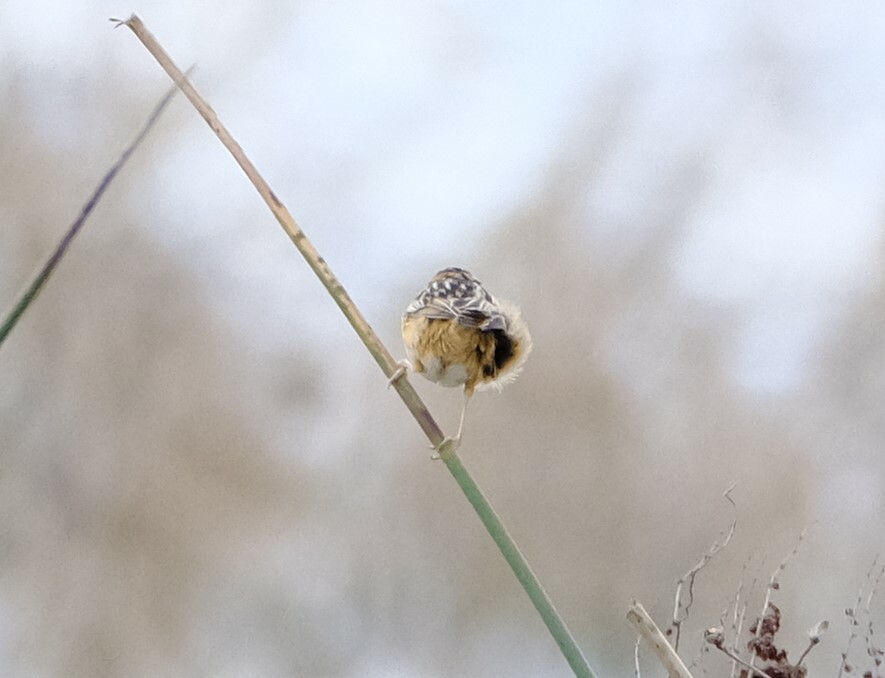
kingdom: Animalia
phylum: Chordata
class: Aves
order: Passeriformes
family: Cisticolidae
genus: Cisticola
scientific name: Cisticola exilis
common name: Golden-headed cisticola
